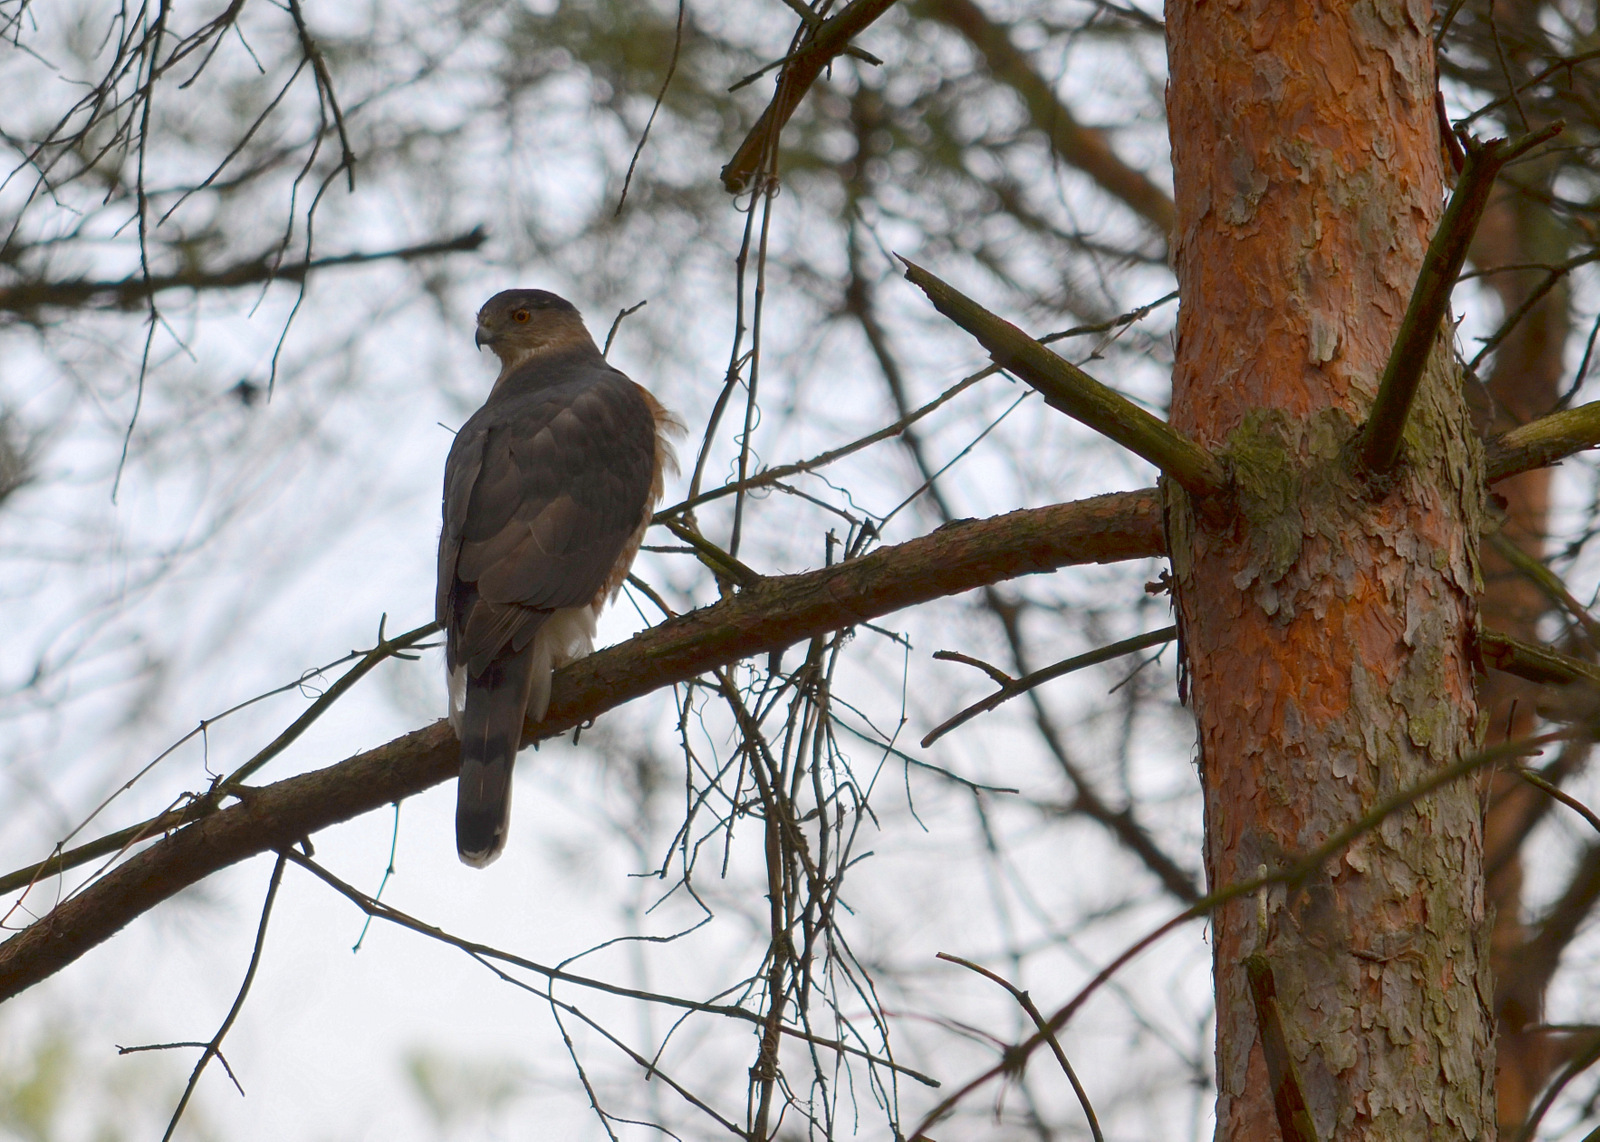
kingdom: Animalia
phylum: Chordata
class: Aves
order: Accipitriformes
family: Accipitridae
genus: Accipiter
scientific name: Accipiter cooperii
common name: Cooper's hawk
